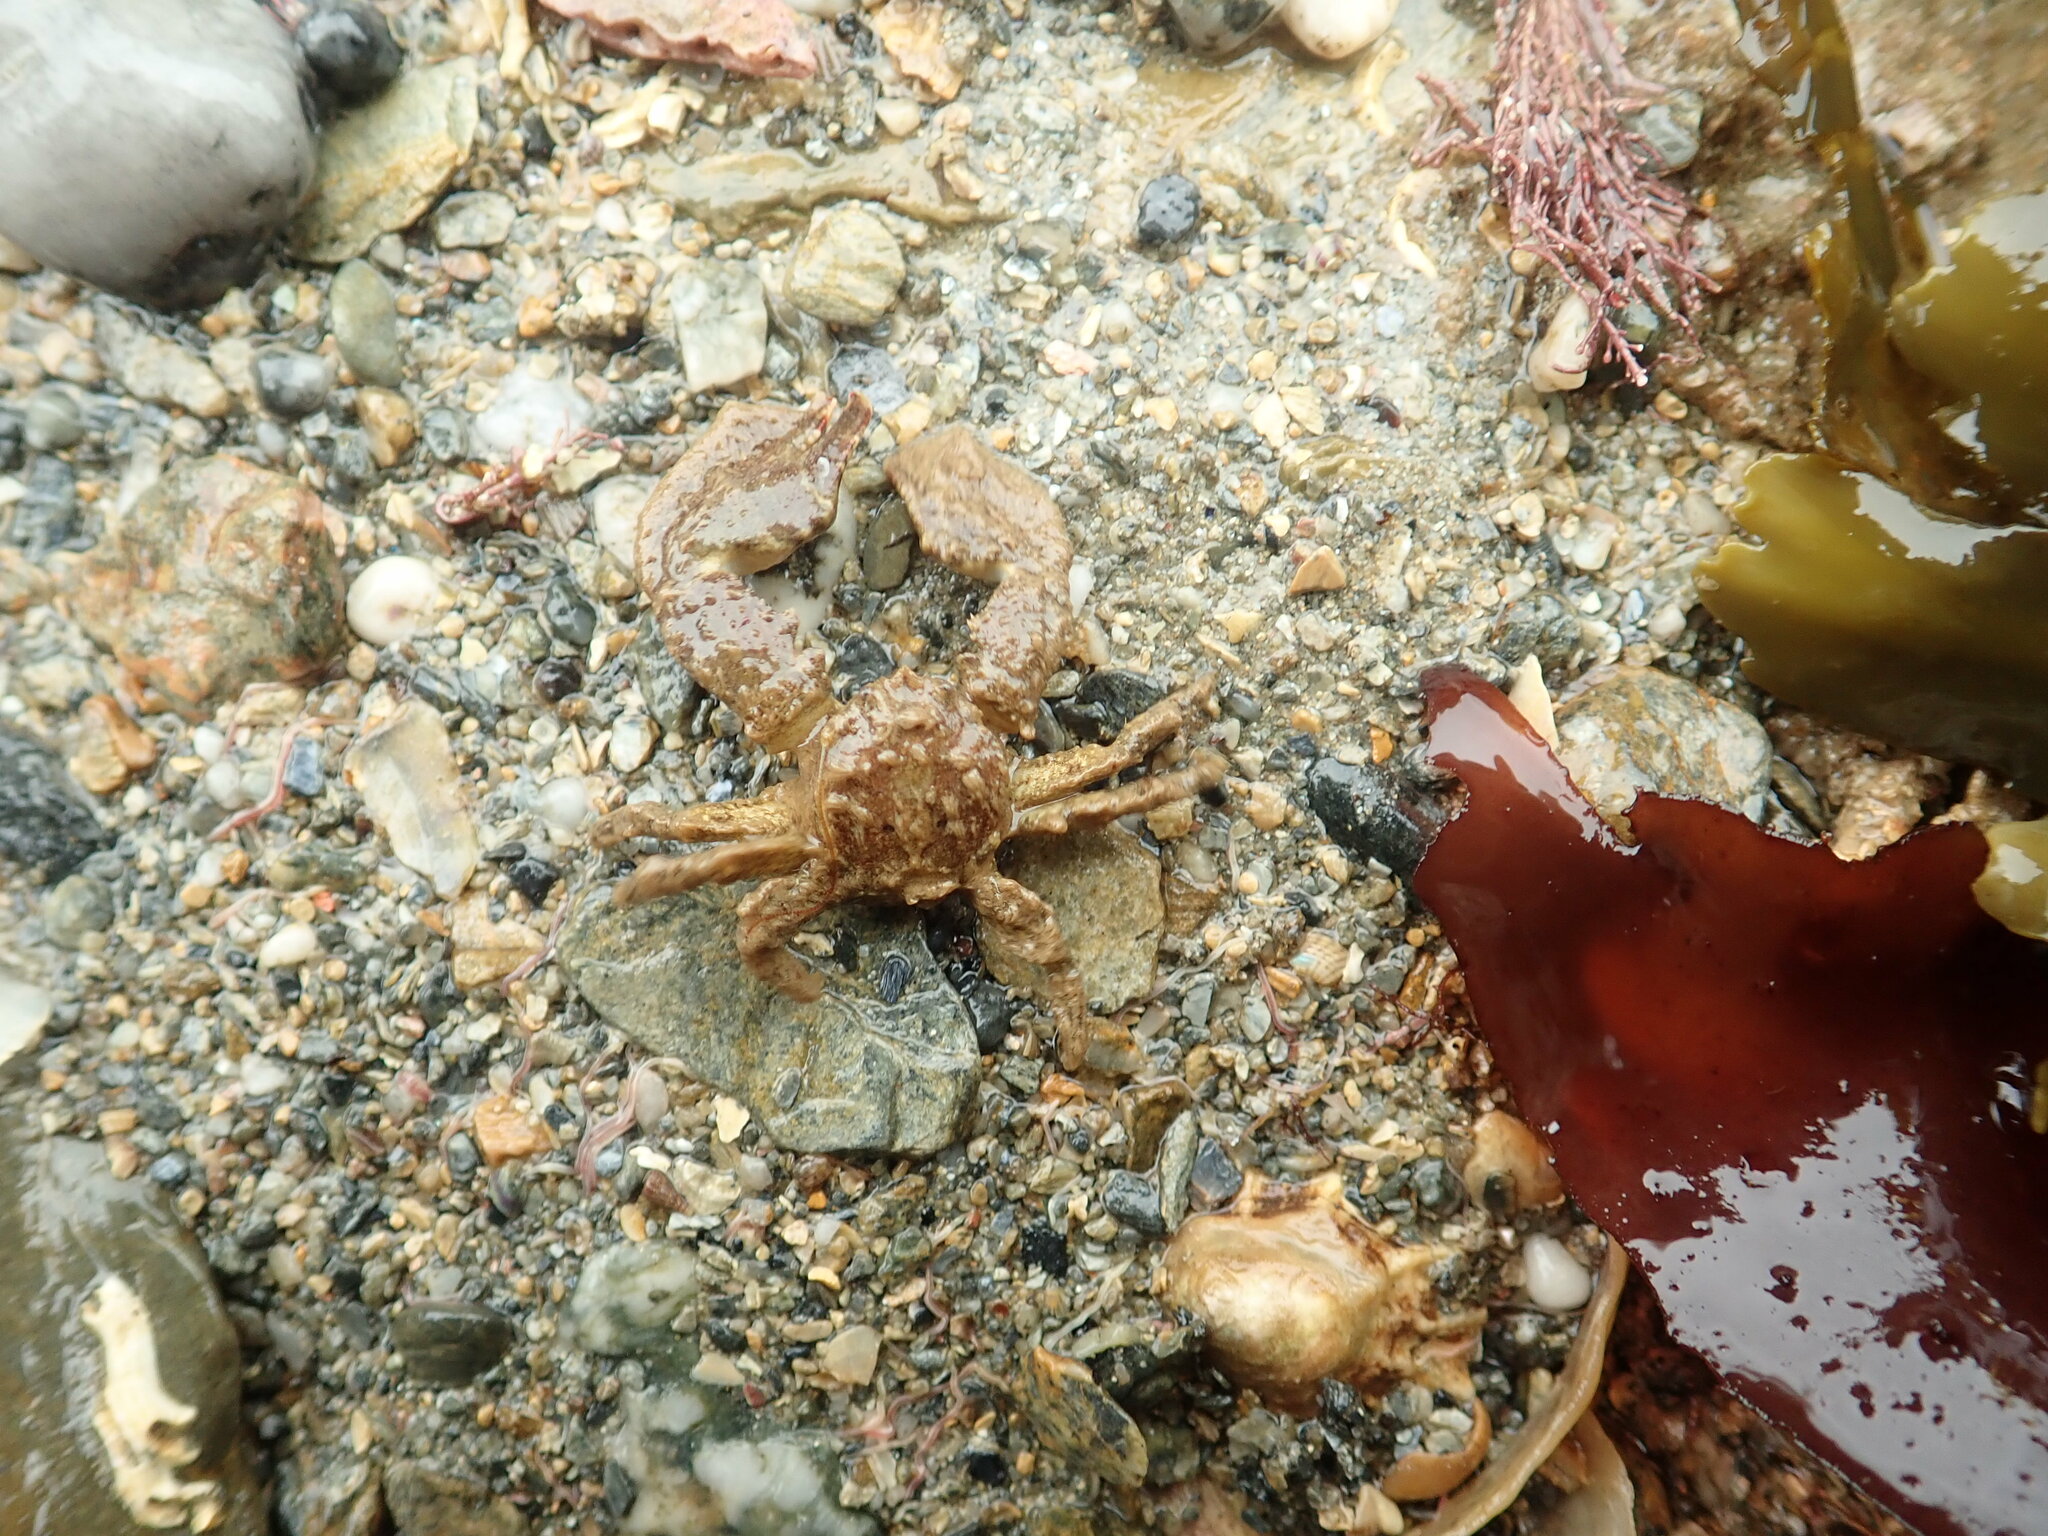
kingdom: Animalia
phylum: Arthropoda
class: Malacostraca
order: Decapoda
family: Porcellanidae
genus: Porcellana
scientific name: Porcellana platycheles
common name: Porcelain crab
